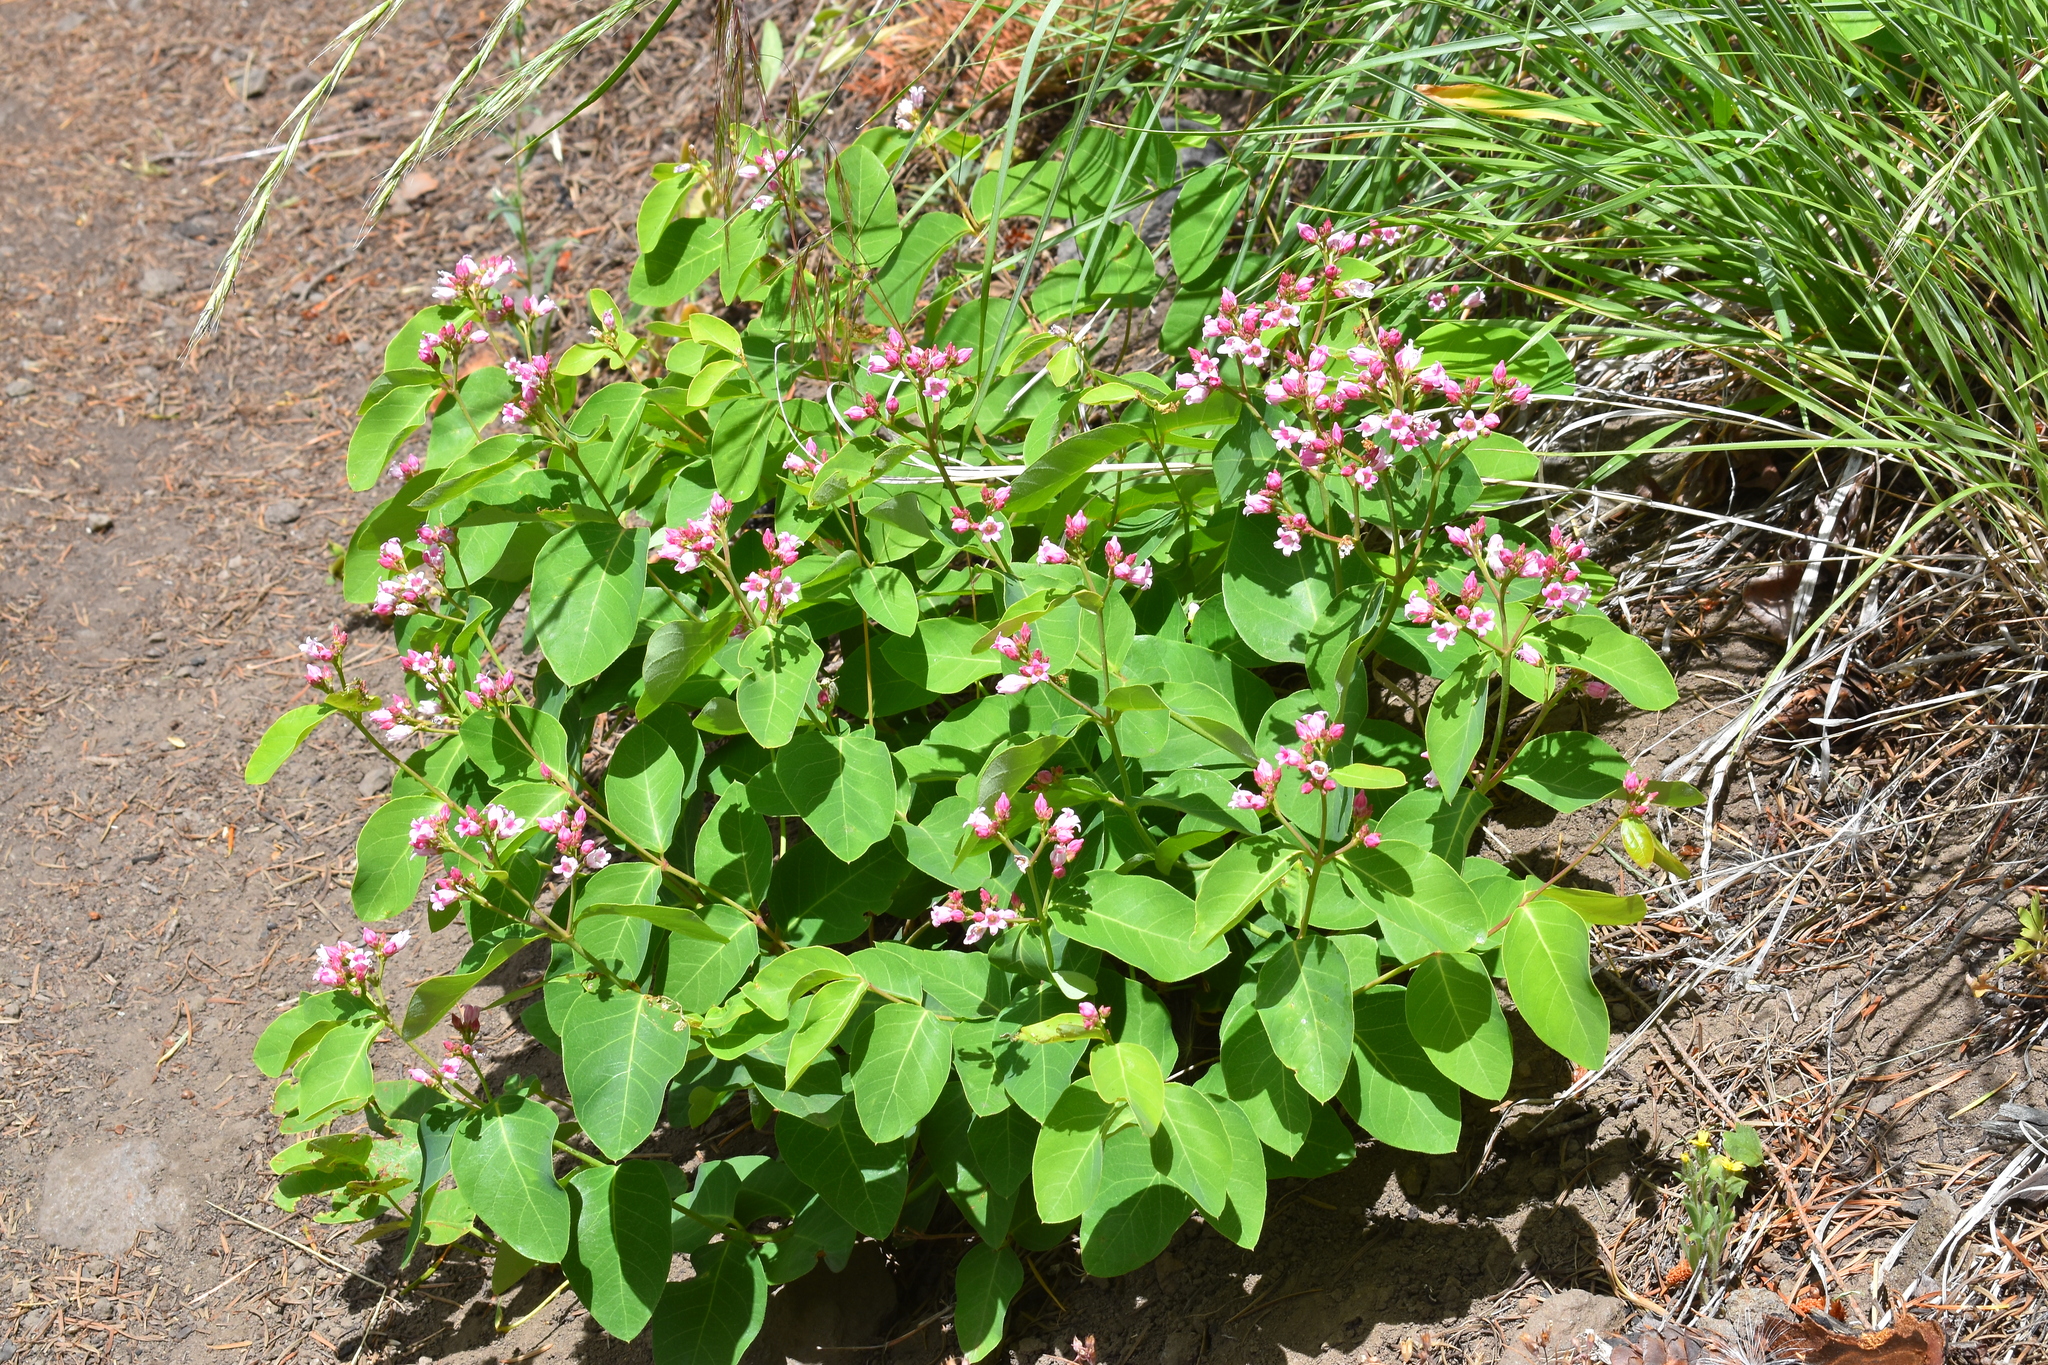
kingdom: Plantae
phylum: Tracheophyta
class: Magnoliopsida
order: Gentianales
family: Apocynaceae
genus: Apocynum
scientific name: Apocynum androsaemifolium
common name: Spreading dogbane
